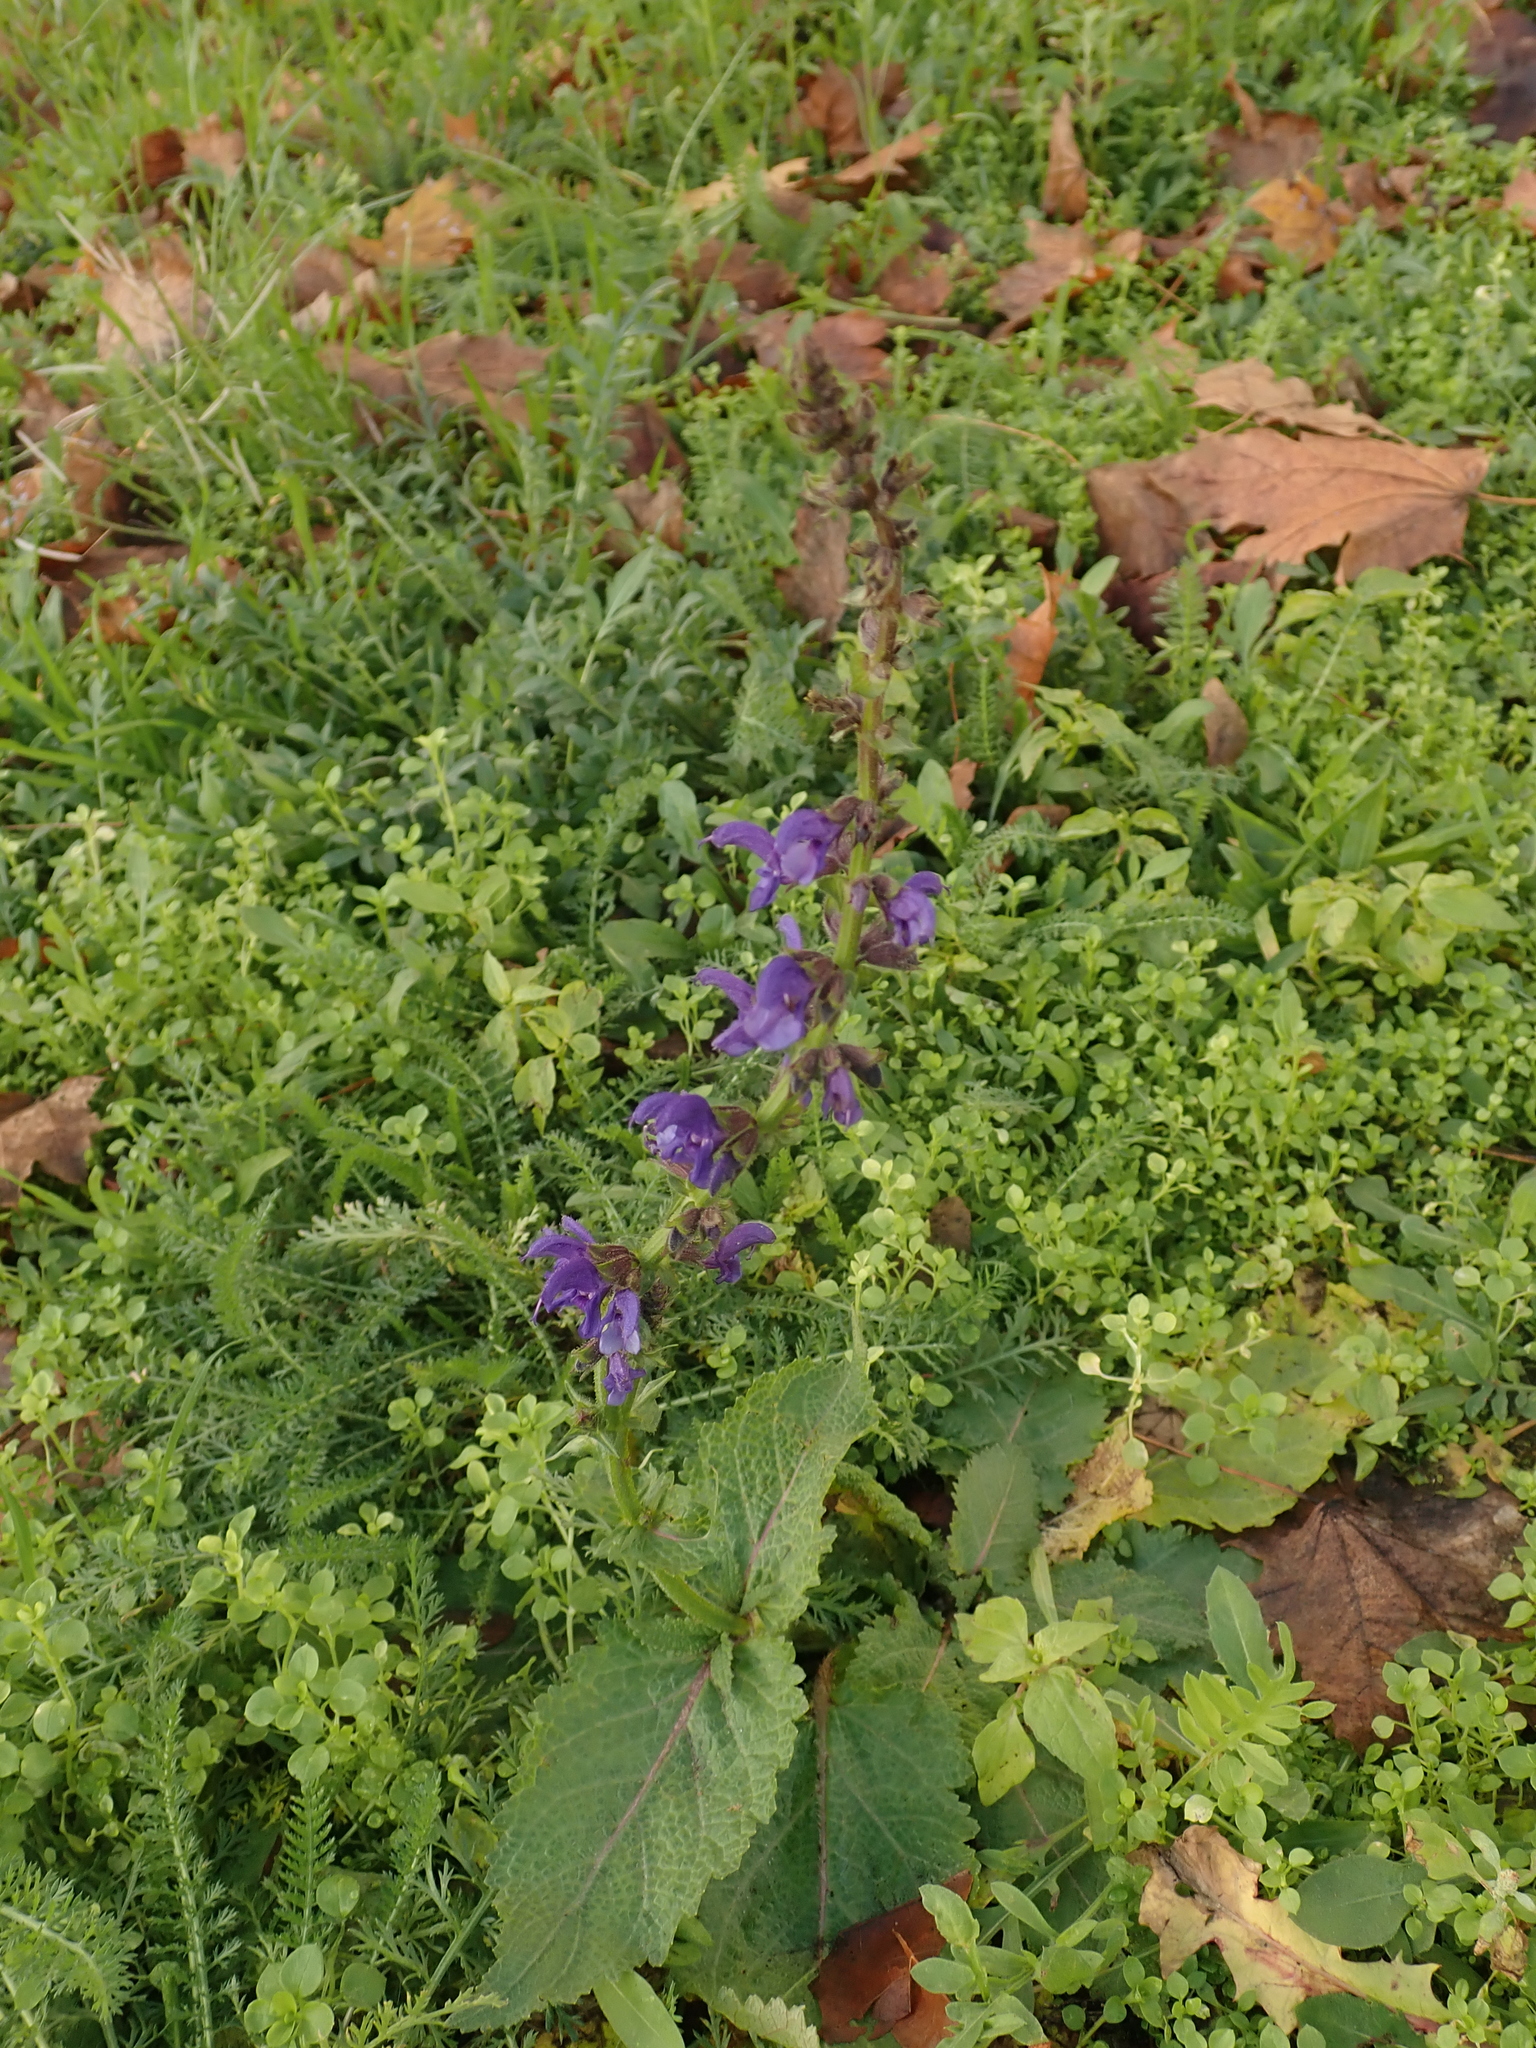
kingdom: Plantae
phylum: Tracheophyta
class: Magnoliopsida
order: Lamiales
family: Lamiaceae
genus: Salvia
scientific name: Salvia pratensis
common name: Meadow sage
